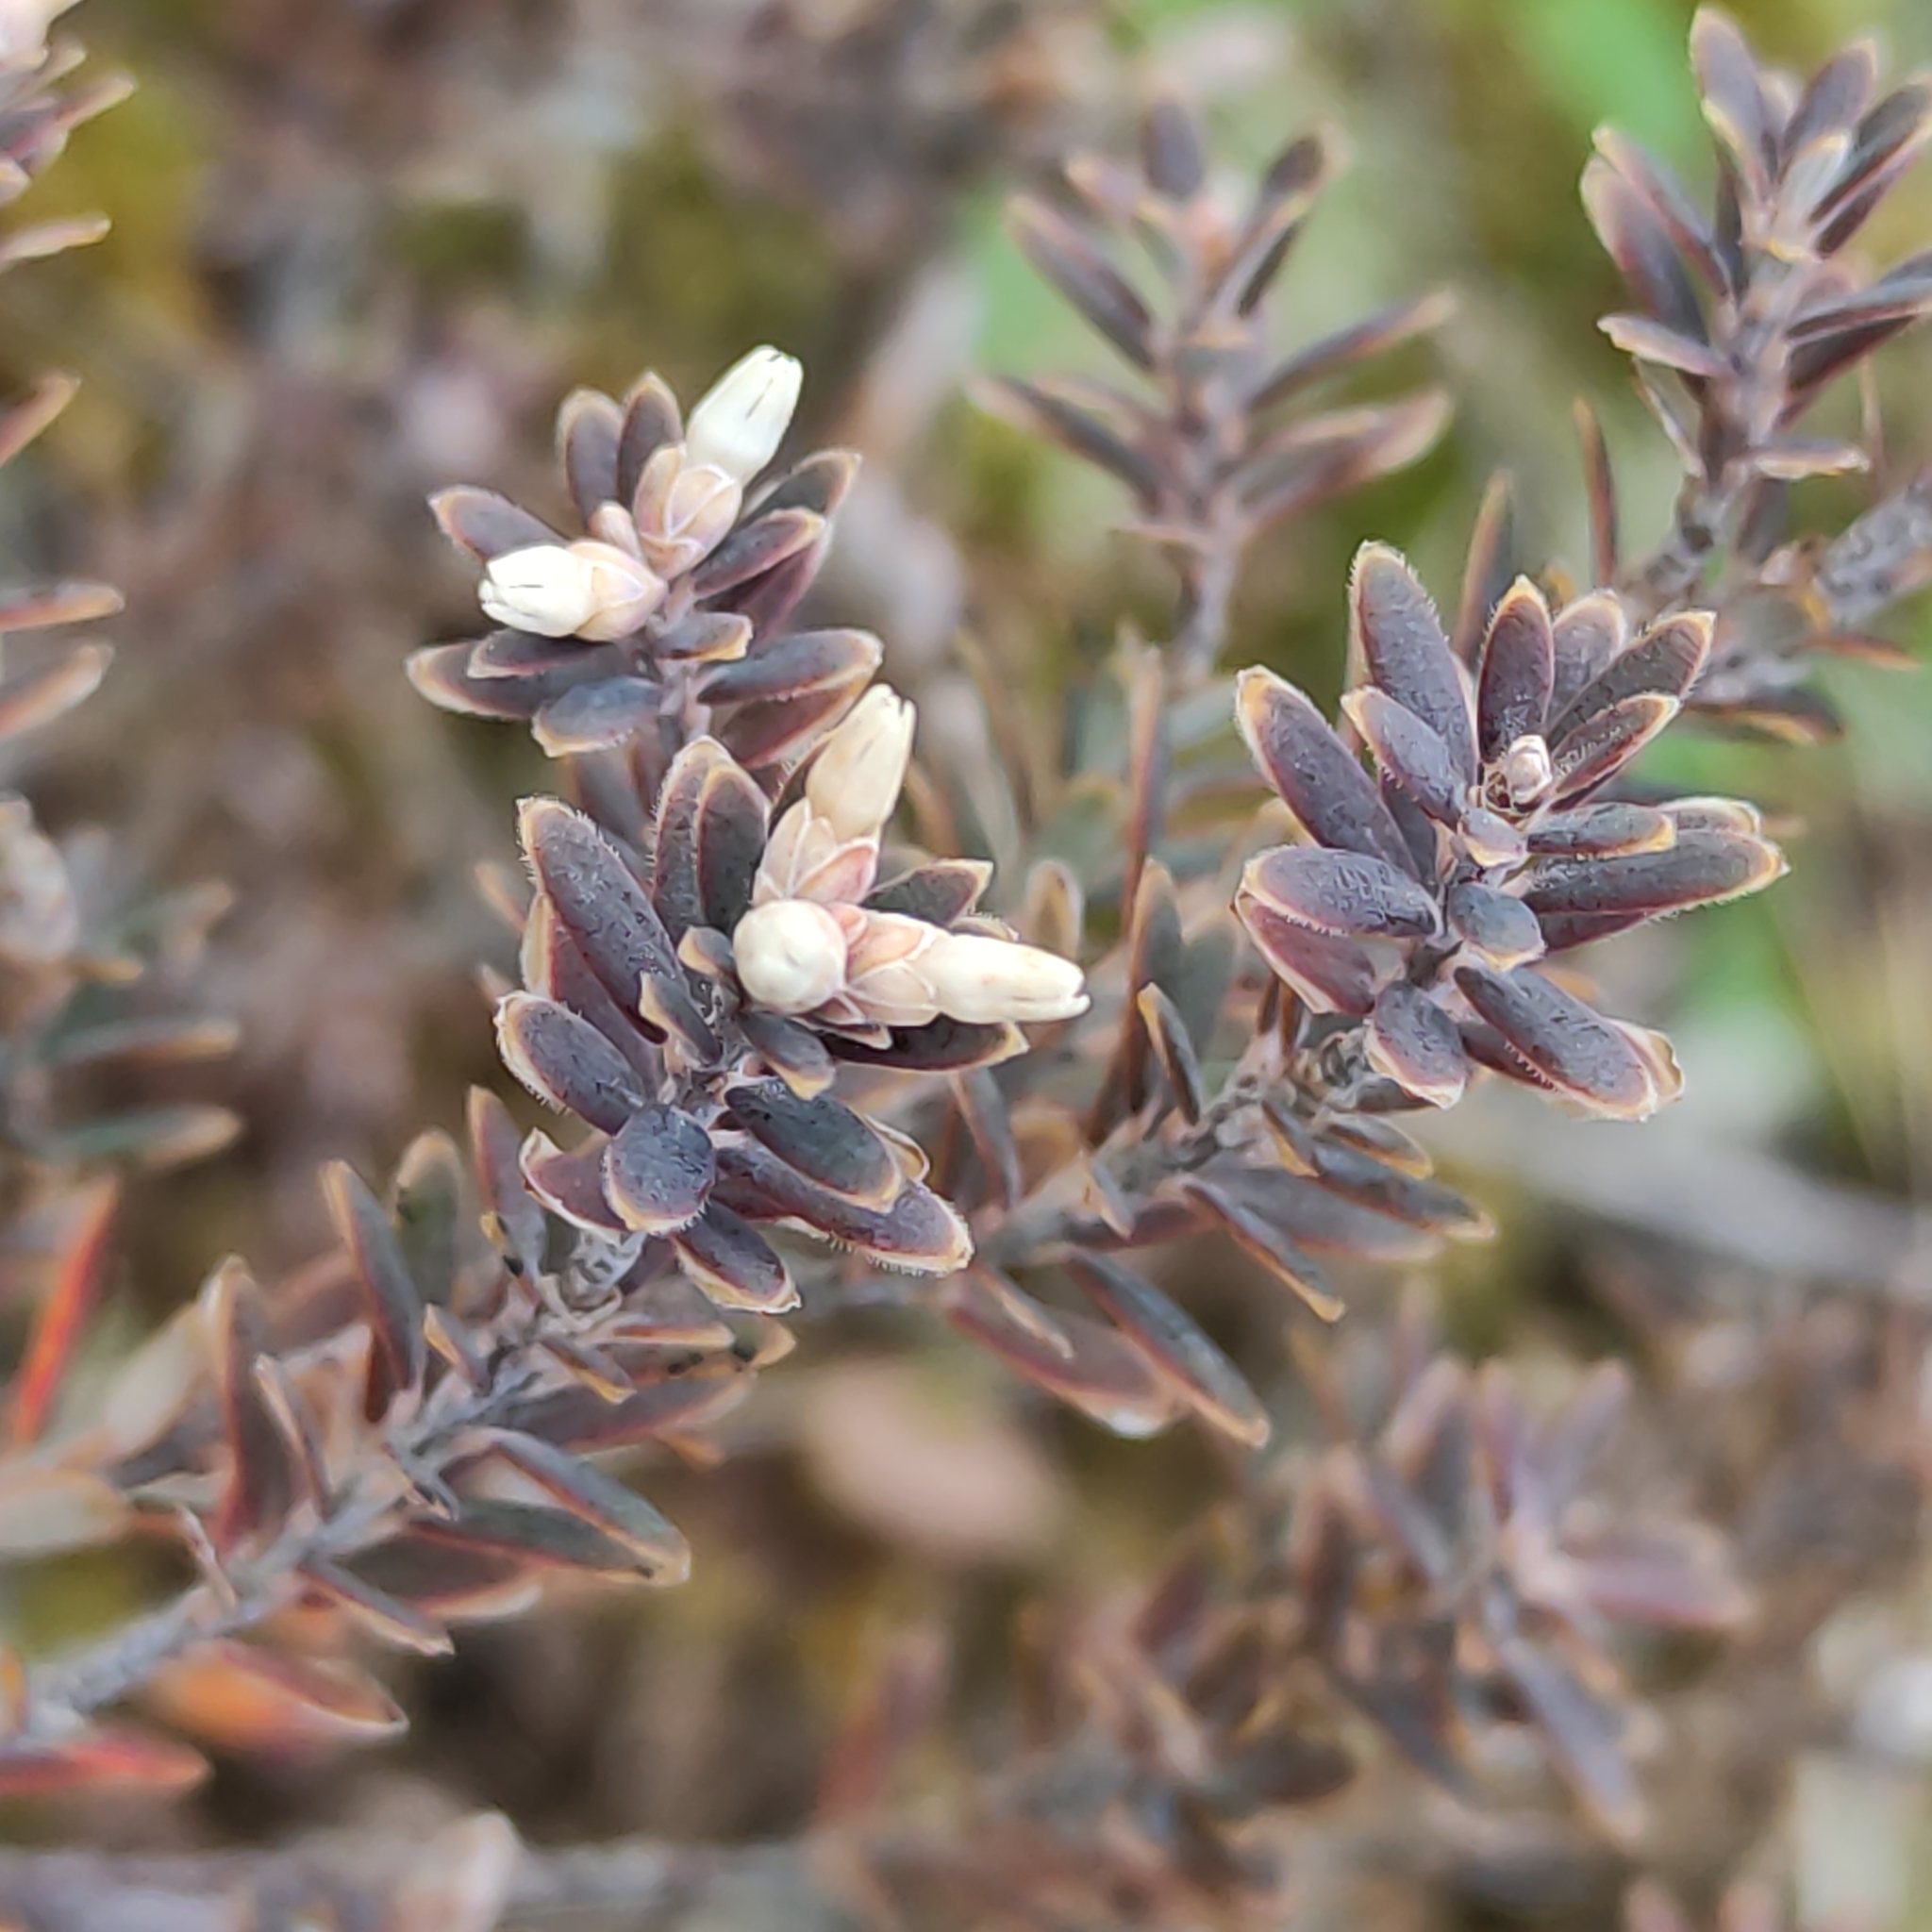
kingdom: Plantae
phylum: Tracheophyta
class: Magnoliopsida
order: Ericales
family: Ericaceae
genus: Acrothamnus
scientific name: Acrothamnus colensoi
